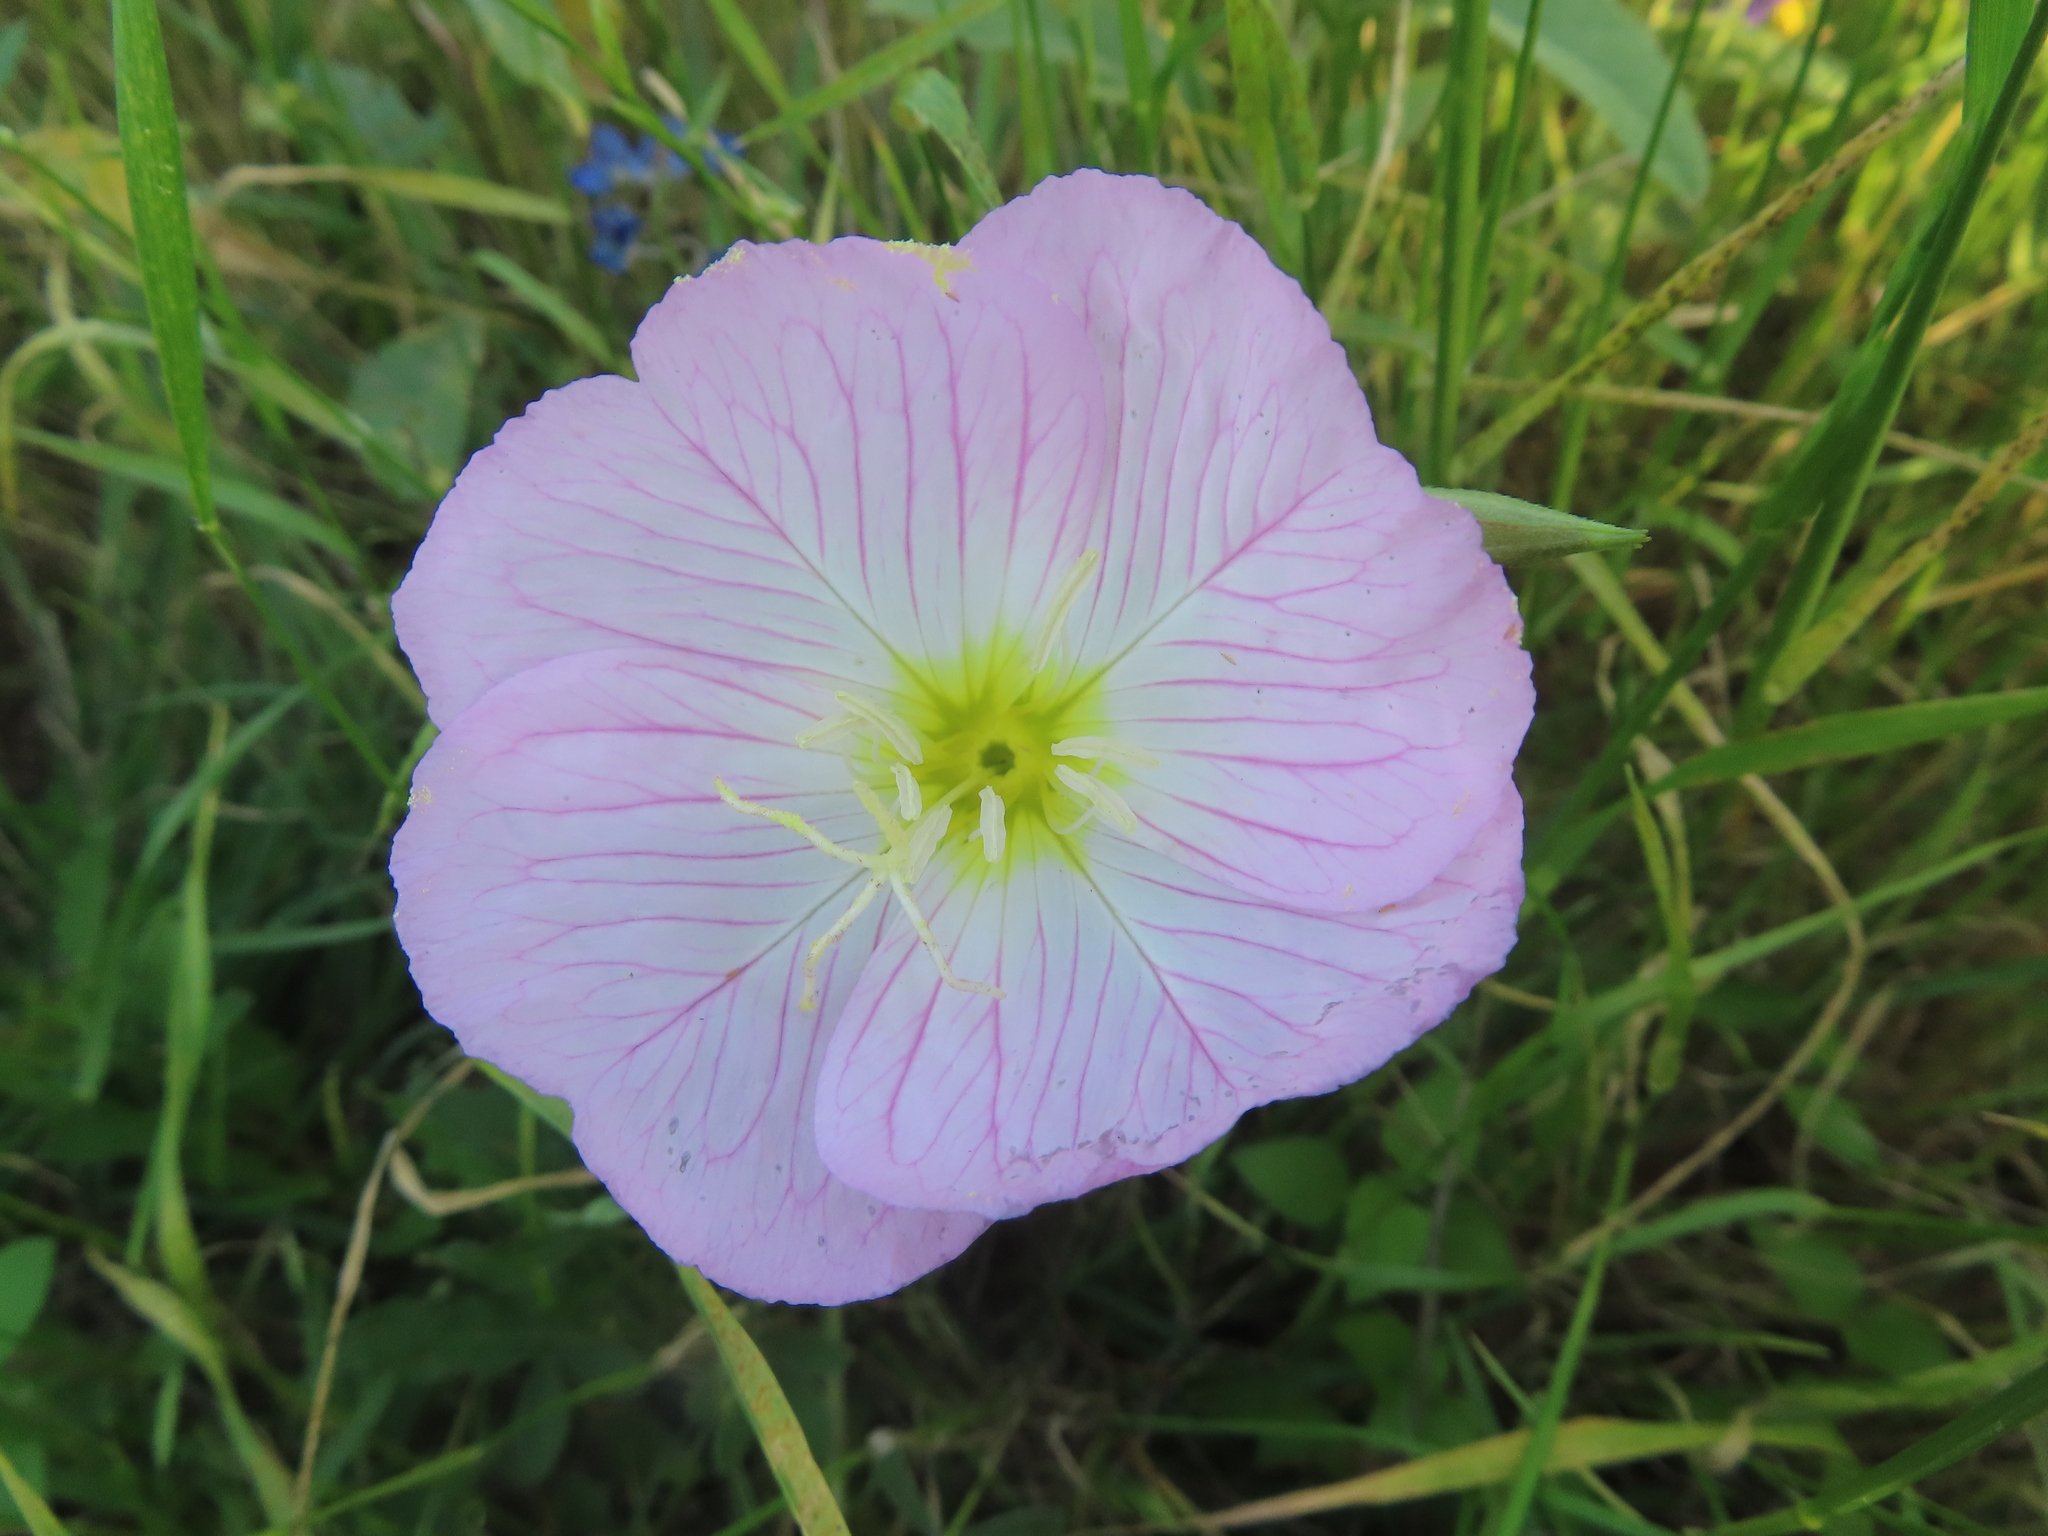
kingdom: Plantae
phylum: Tracheophyta
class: Magnoliopsida
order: Myrtales
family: Onagraceae
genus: Oenothera
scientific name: Oenothera speciosa
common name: White evening-primrose
